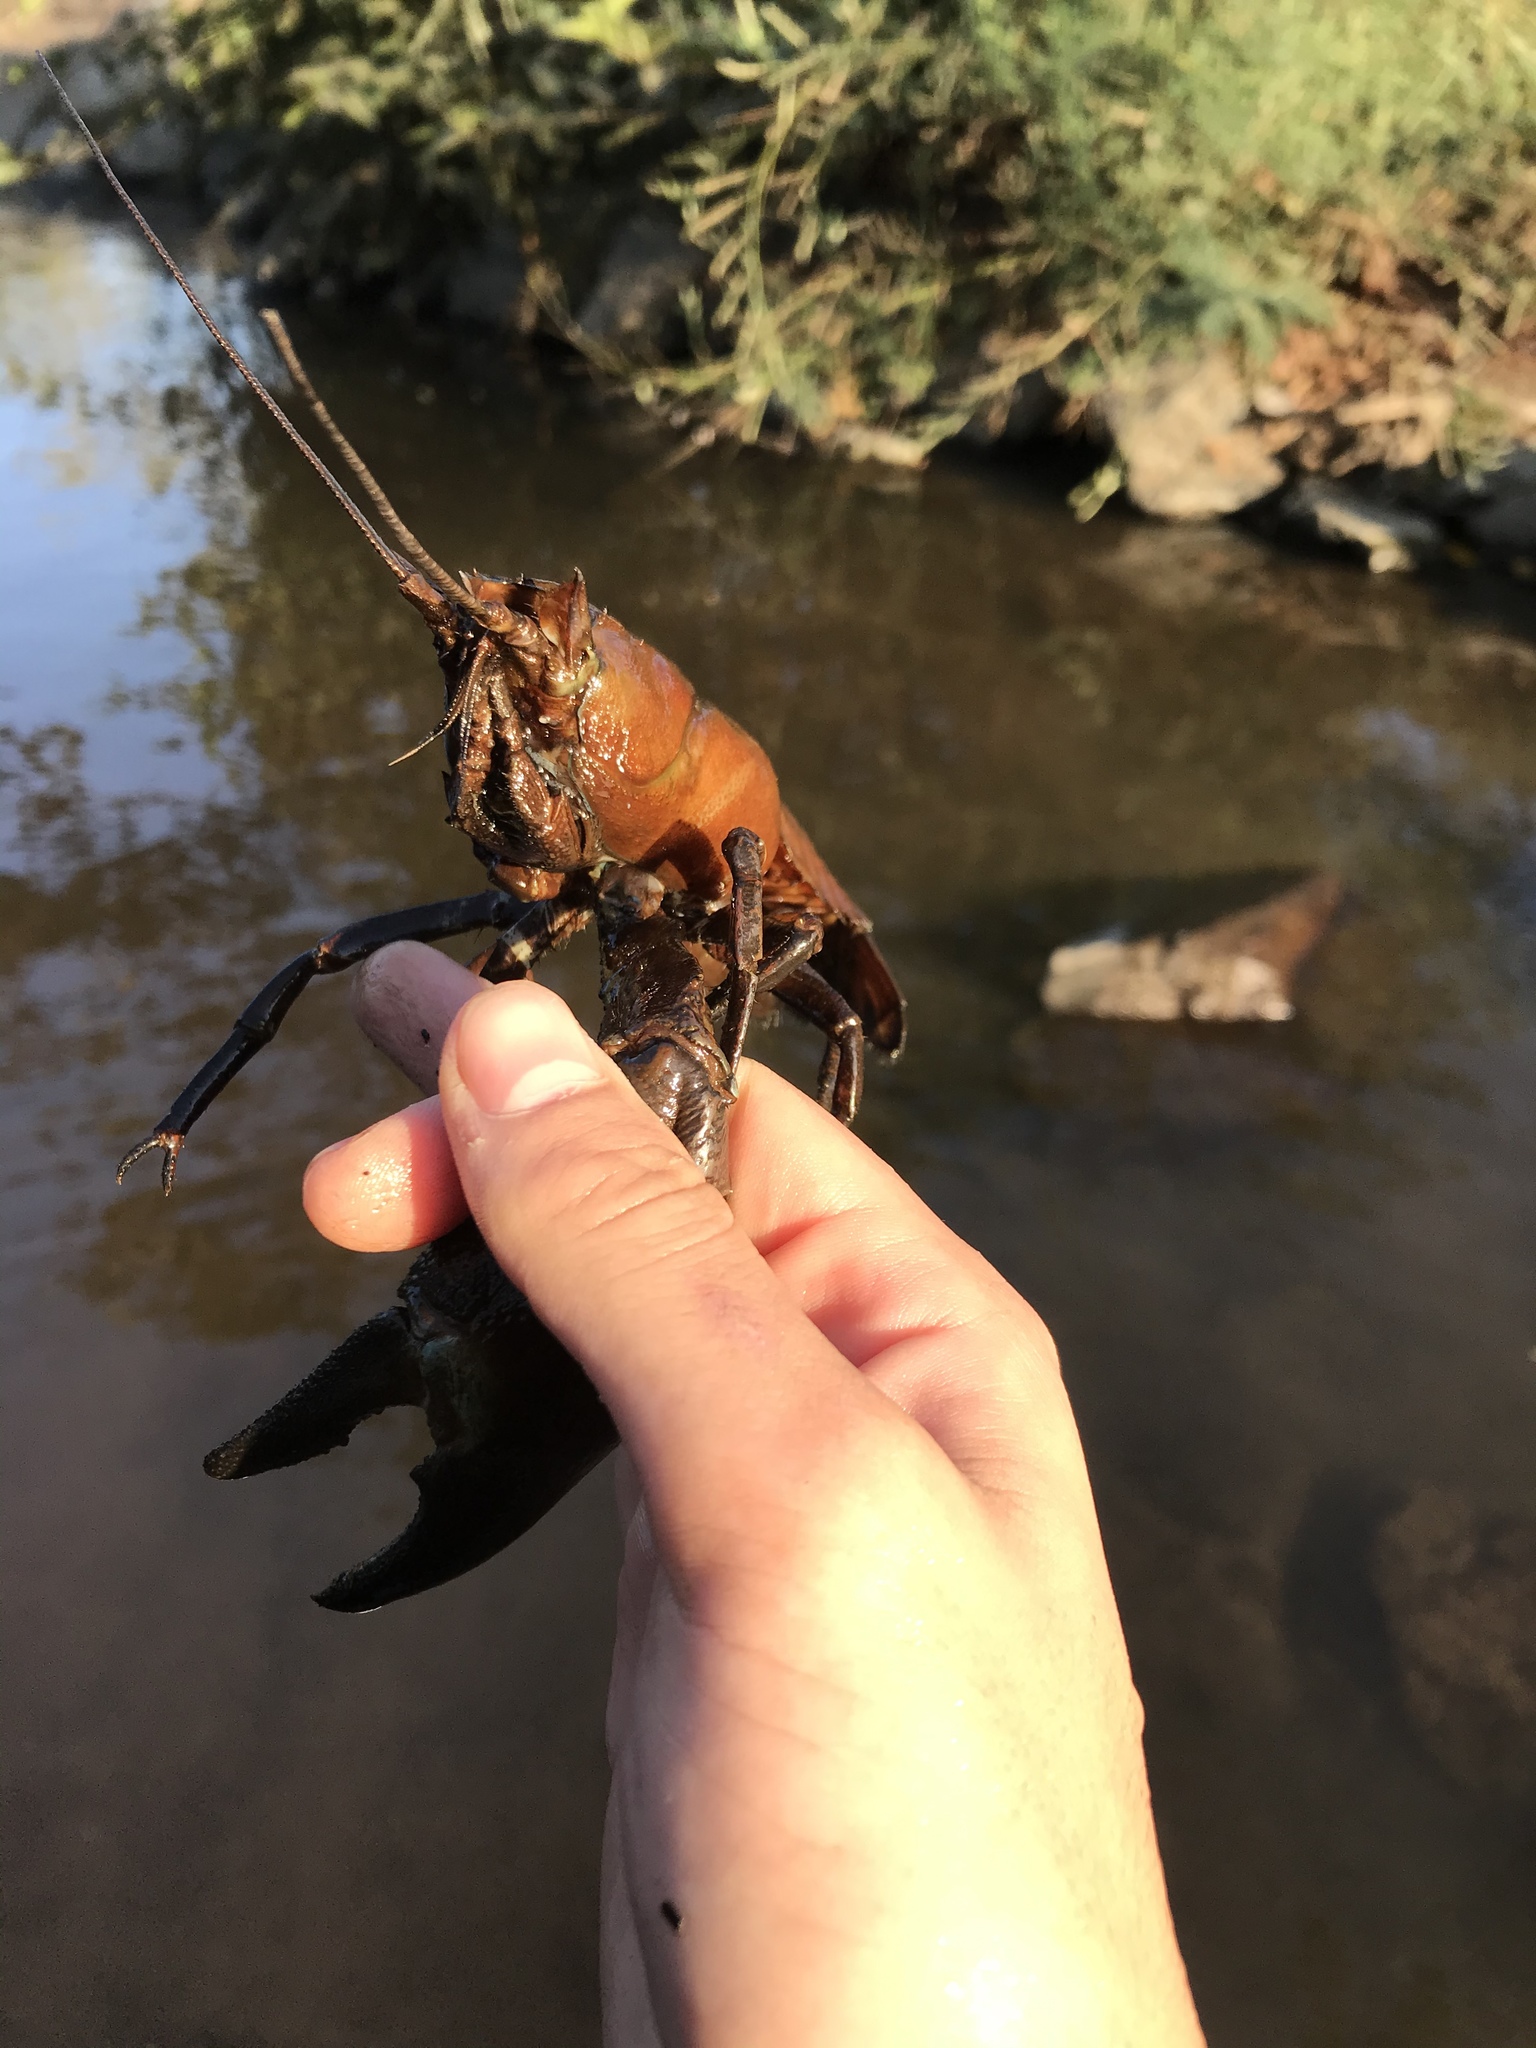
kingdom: Animalia
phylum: Arthropoda
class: Malacostraca
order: Decapoda
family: Astacidae
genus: Pacifastacus
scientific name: Pacifastacus leniusculus
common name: Signal crayfish
